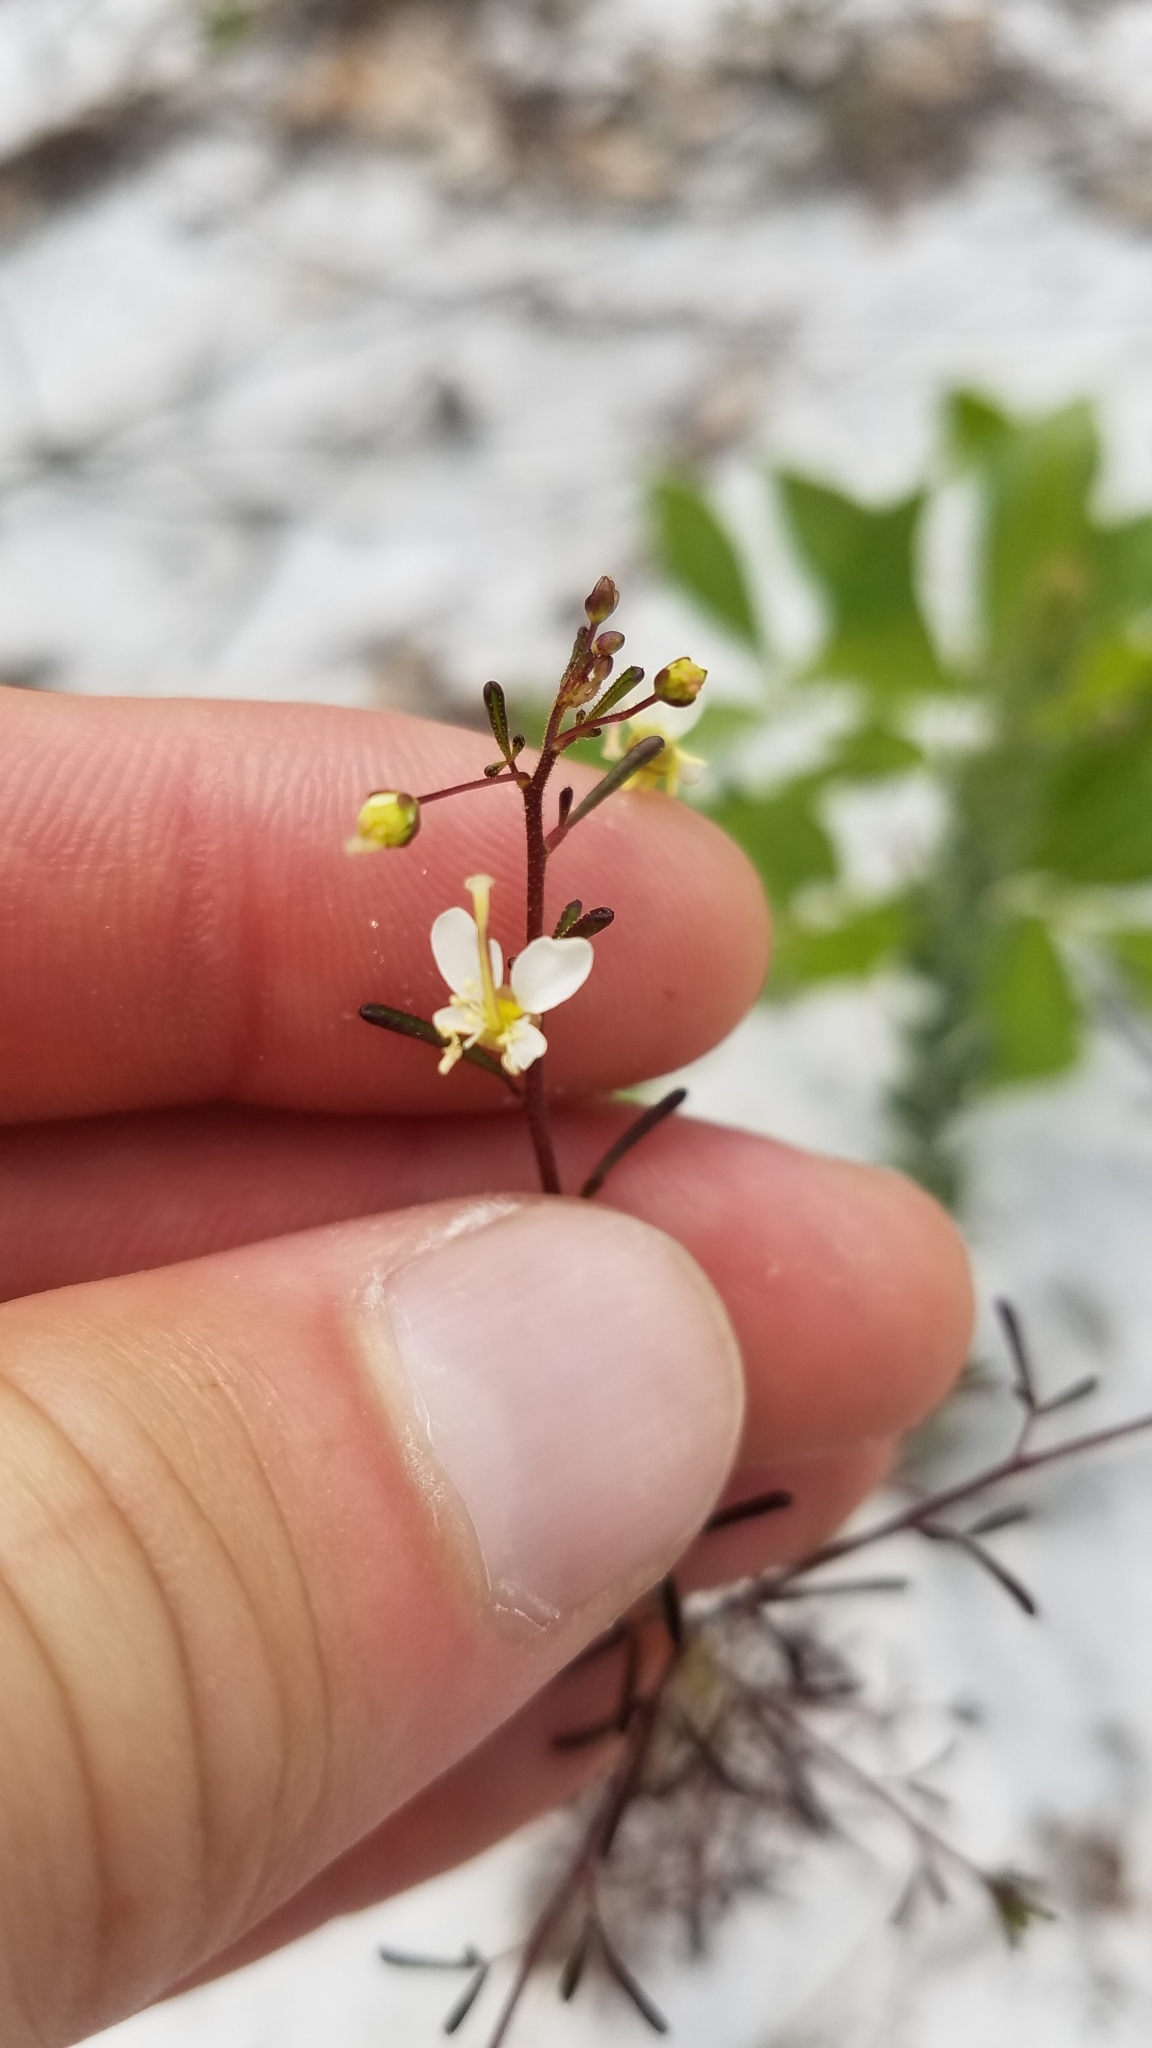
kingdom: Plantae
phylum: Tracheophyta
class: Magnoliopsida
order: Brassicales
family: Cleomaceae
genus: Polanisia
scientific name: Polanisia tenuifolia
